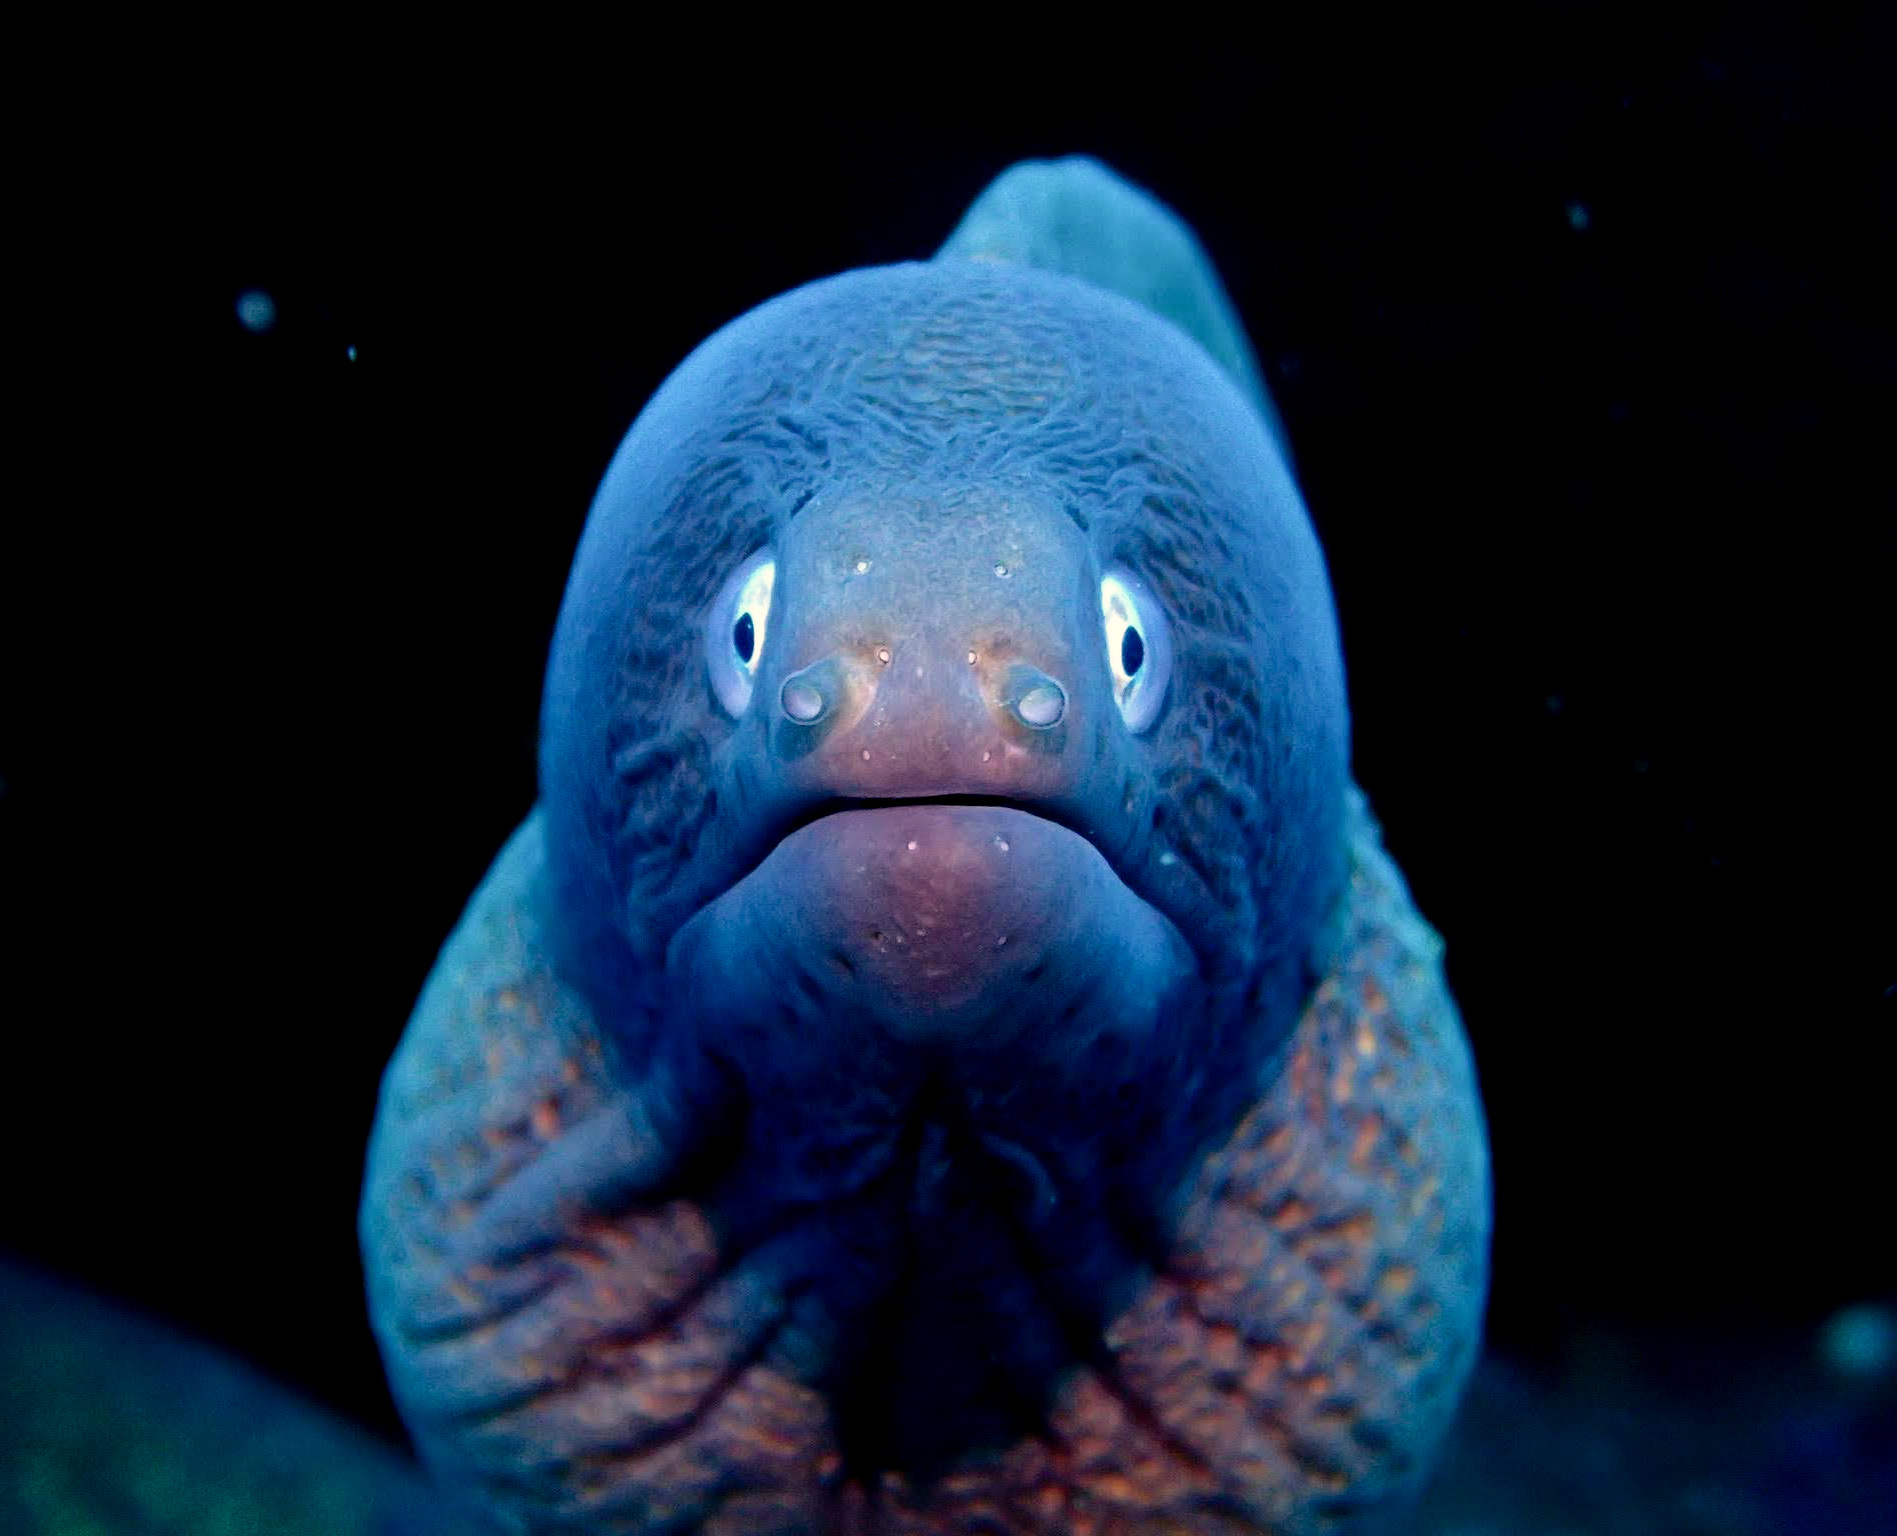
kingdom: Animalia
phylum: Chordata
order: Anguilliformes
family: Muraenidae
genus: Gymnothorax
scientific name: Gymnothorax thyrsoideus
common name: Greyface moray
